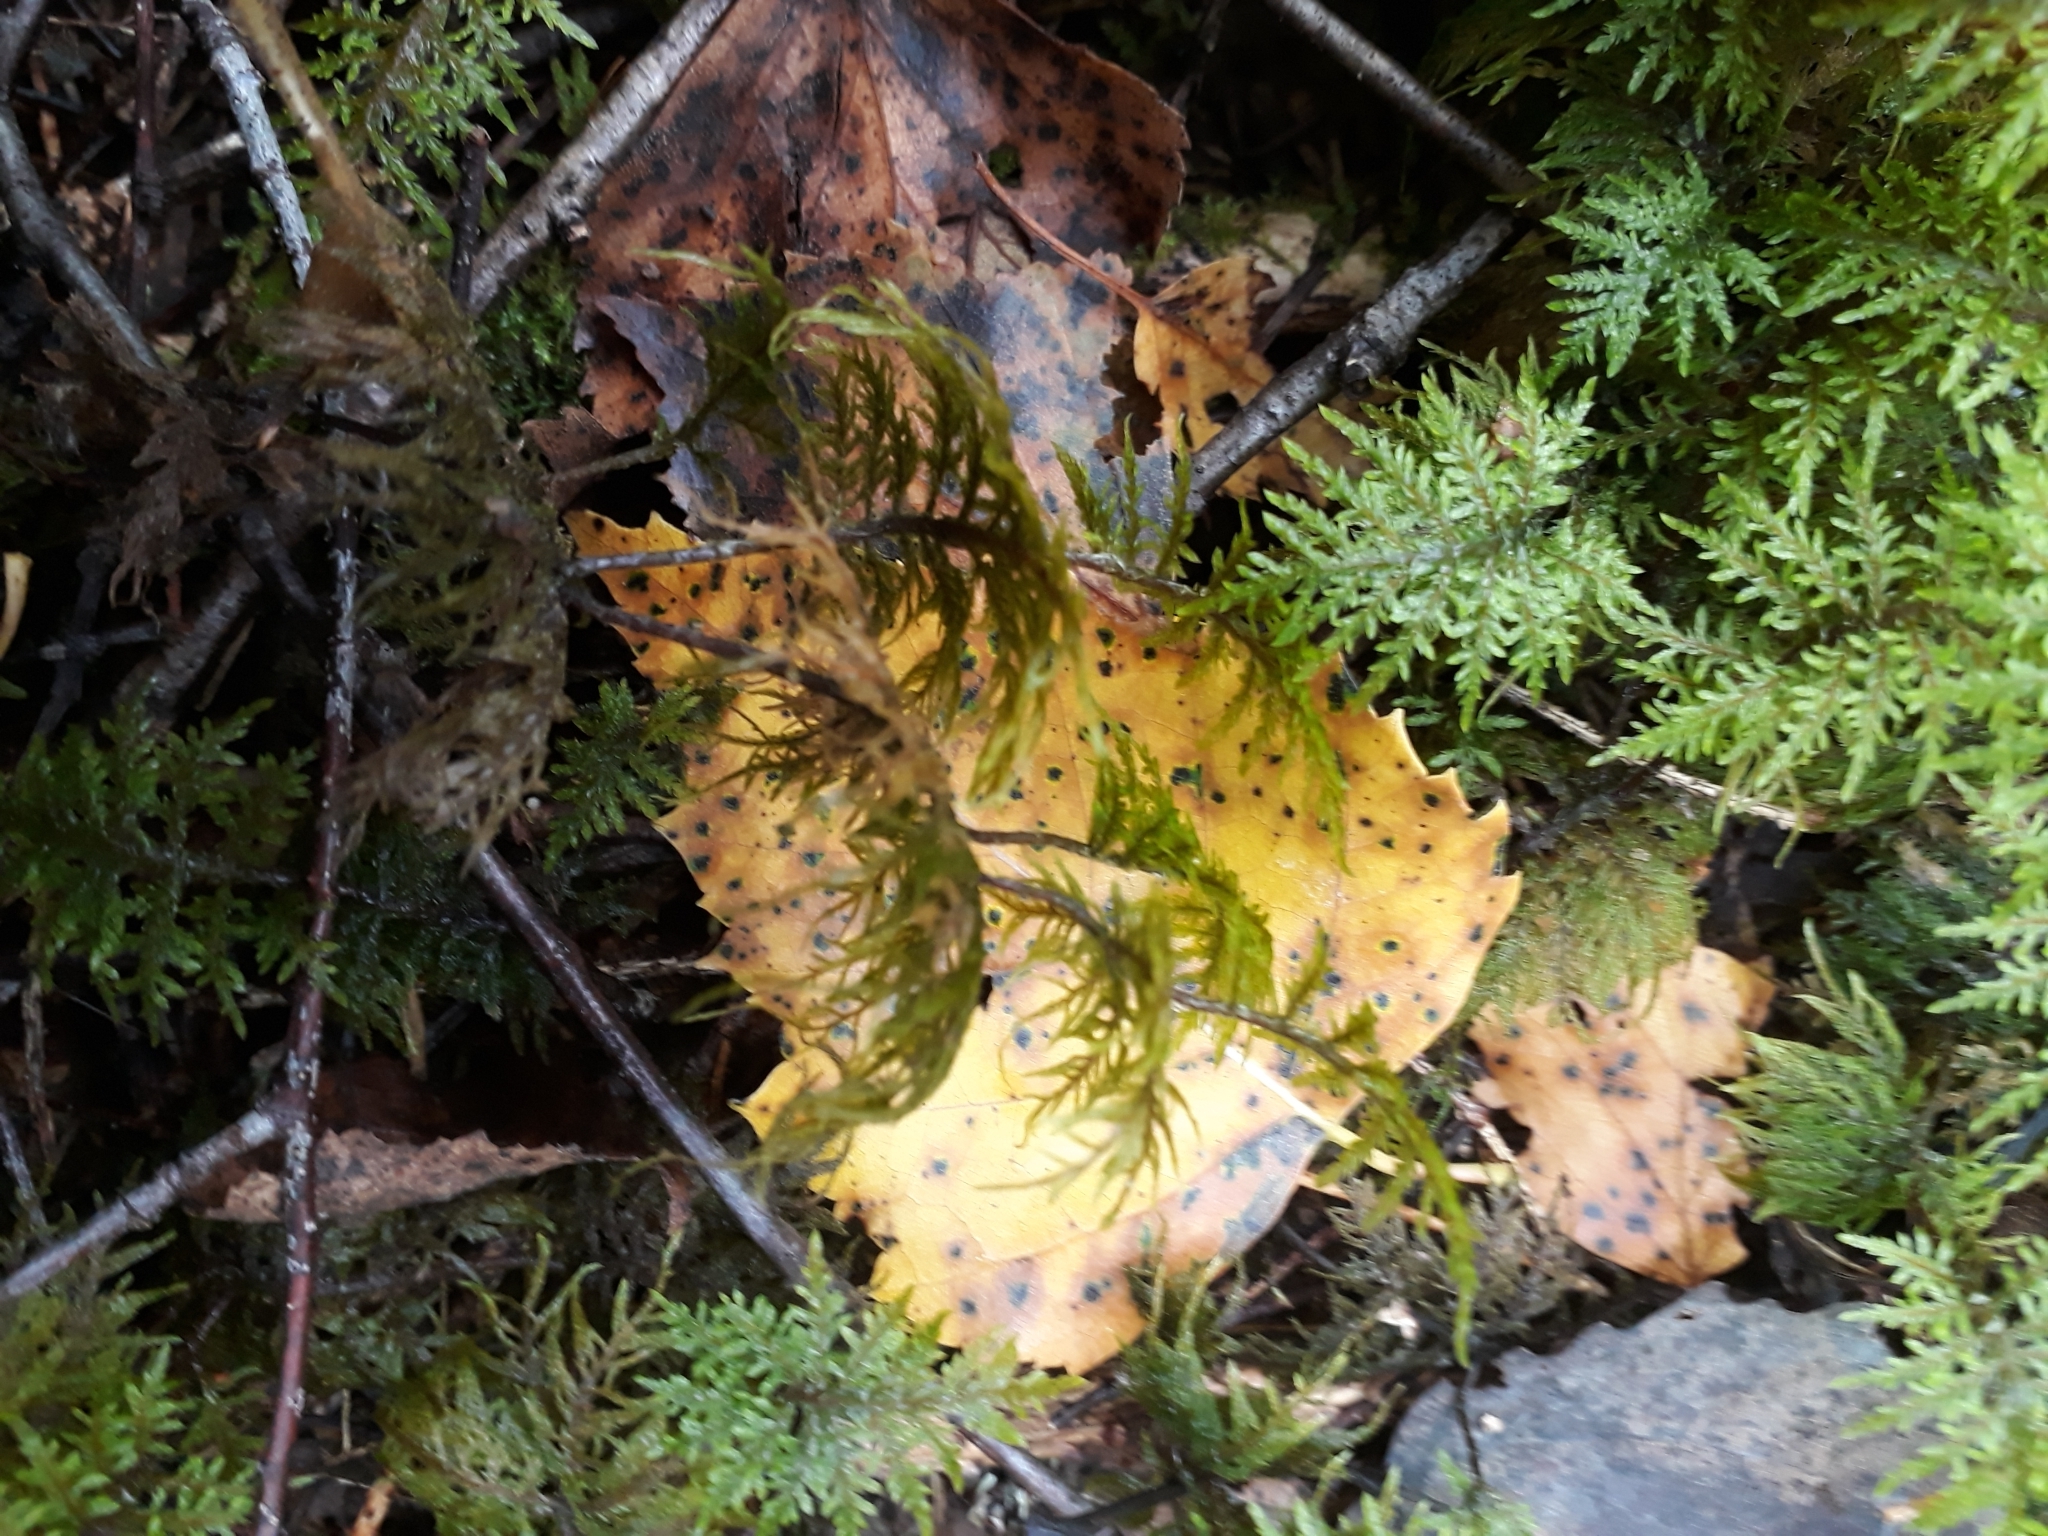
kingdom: Plantae
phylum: Bryophyta
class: Bryopsida
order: Hypnales
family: Hylocomiaceae
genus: Hylocomium
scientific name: Hylocomium splendens
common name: Stairstep moss
